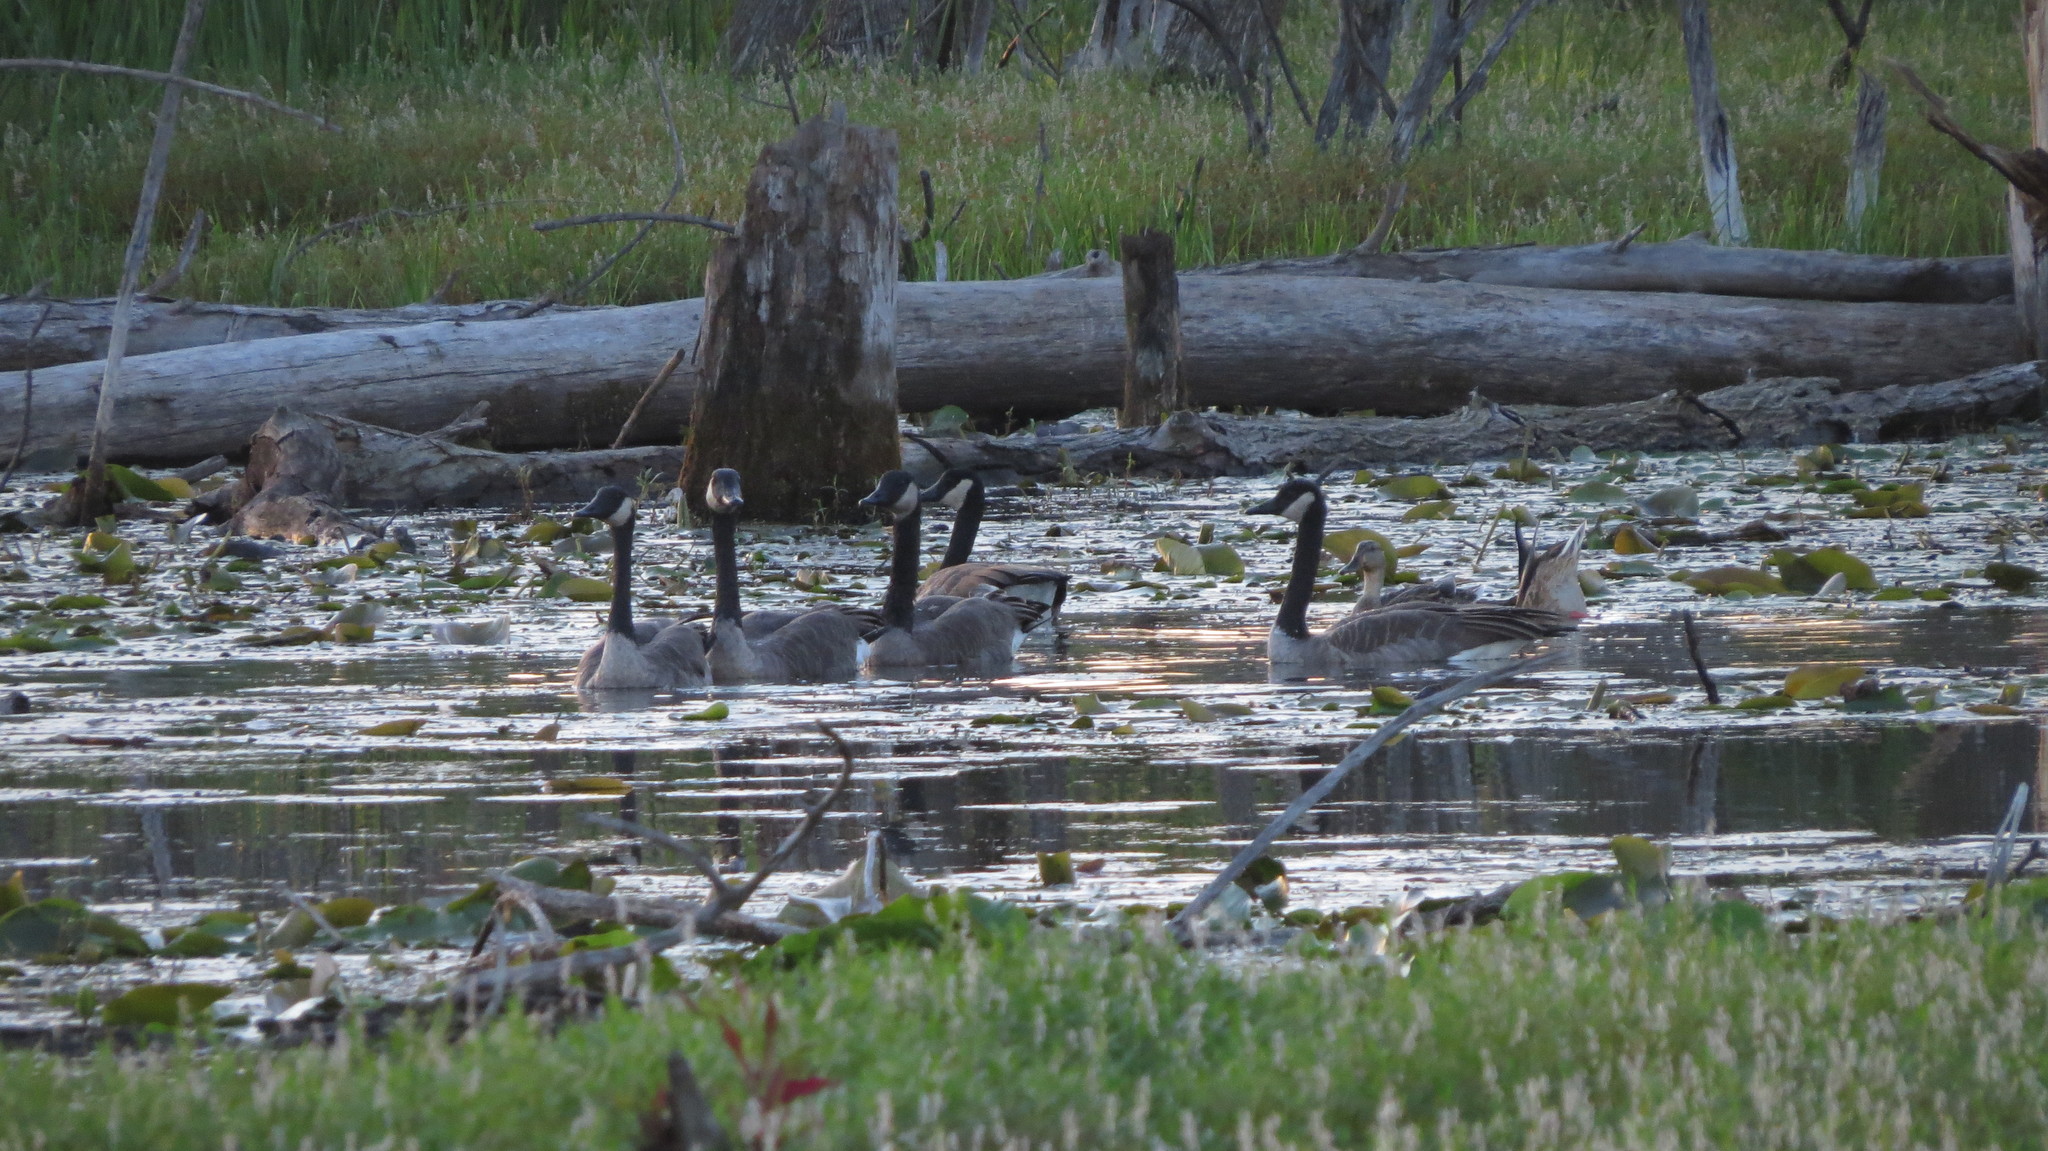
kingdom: Animalia
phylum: Chordata
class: Aves
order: Anseriformes
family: Anatidae
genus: Branta
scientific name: Branta canadensis
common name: Canada goose
